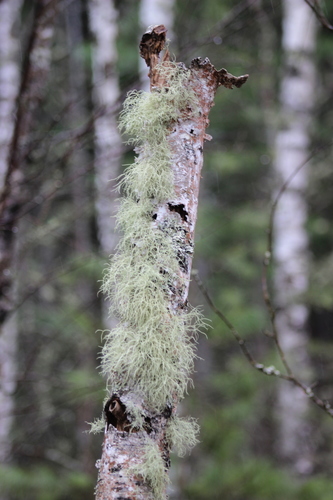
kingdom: Fungi
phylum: Ascomycota
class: Lecanoromycetes
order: Lecanorales
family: Parmeliaceae
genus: Usnea
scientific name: Usnea
